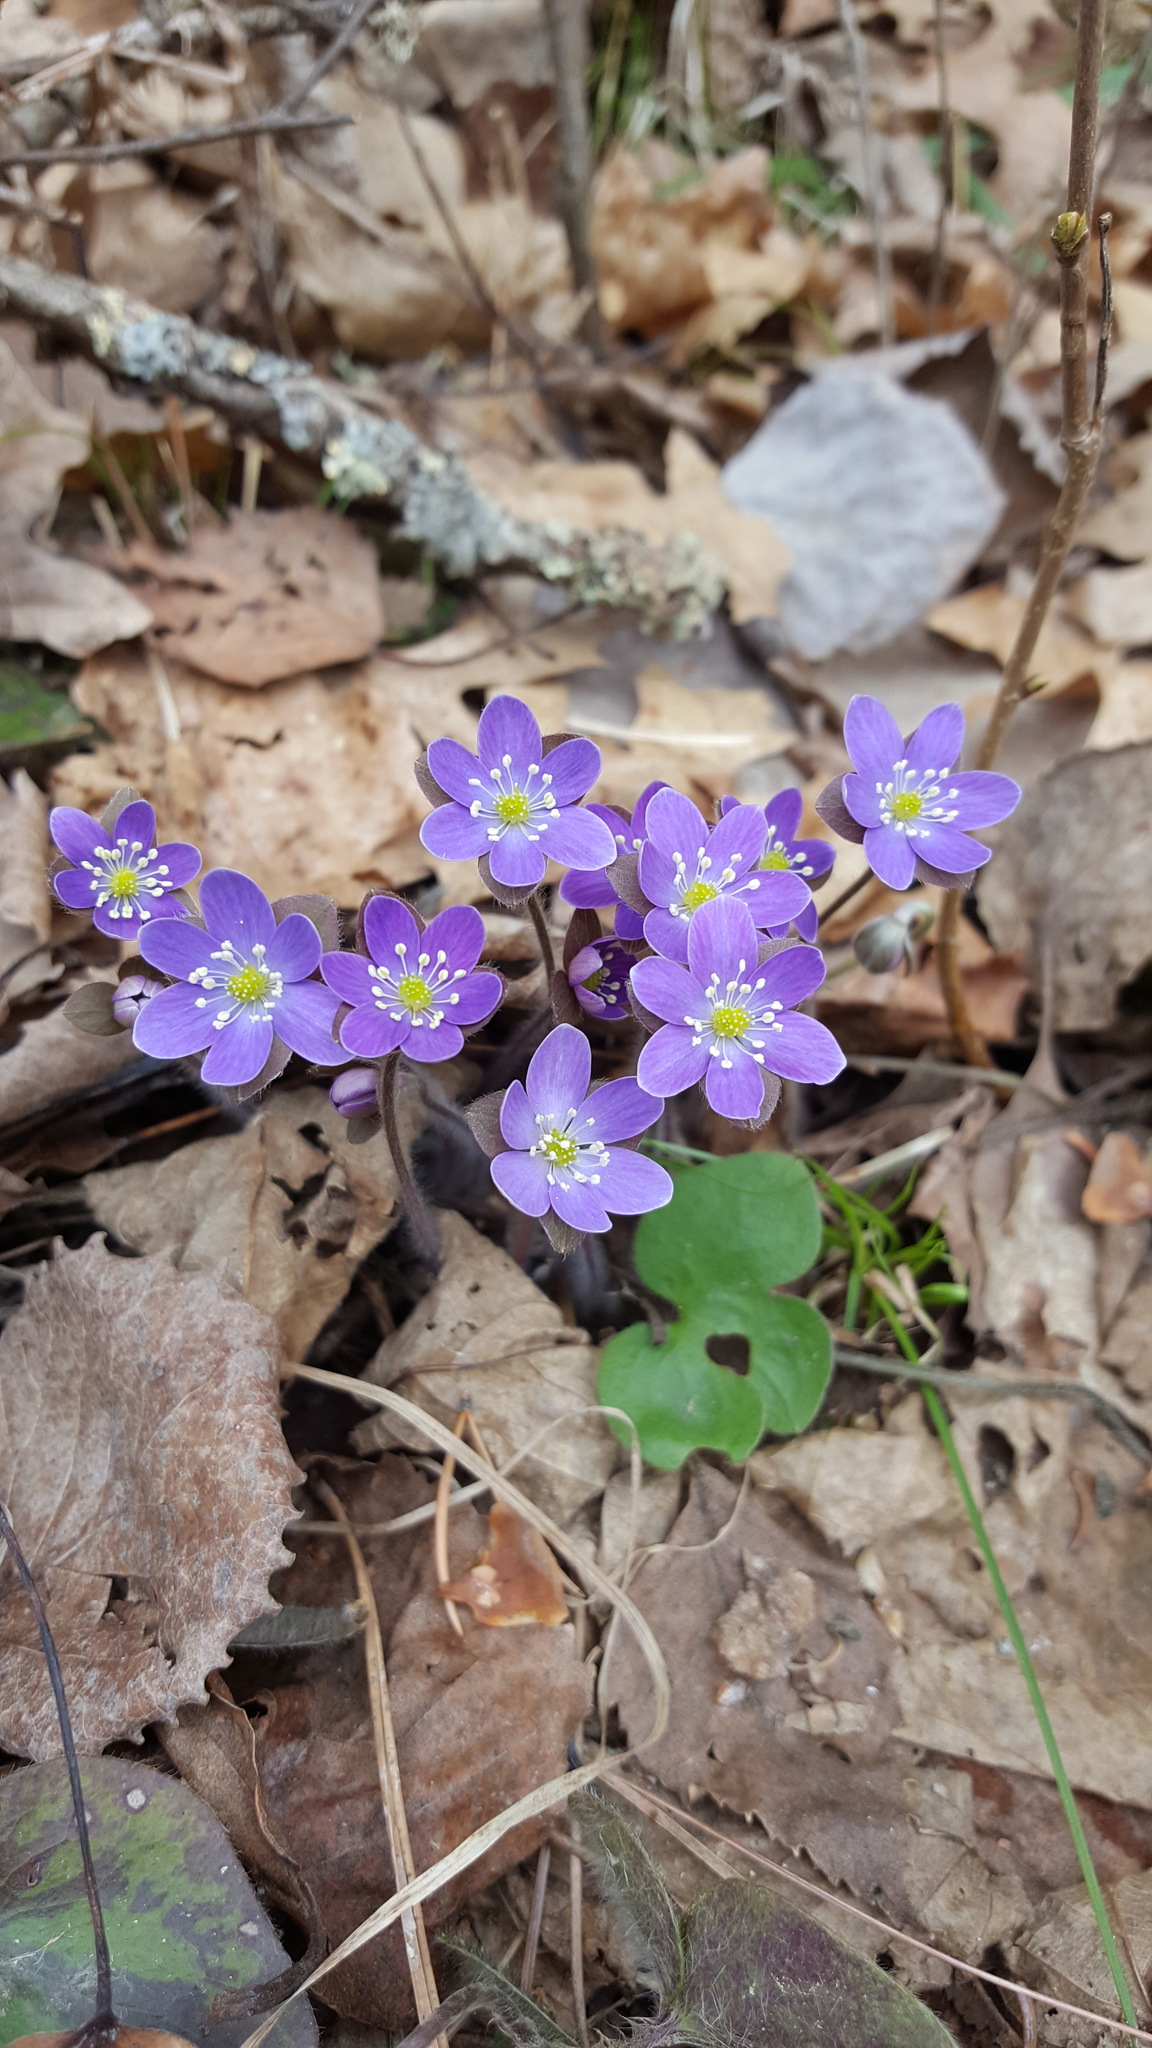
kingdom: Plantae
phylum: Tracheophyta
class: Magnoliopsida
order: Ranunculales
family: Ranunculaceae
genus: Hepatica
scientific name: Hepatica americana
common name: American hepatica
